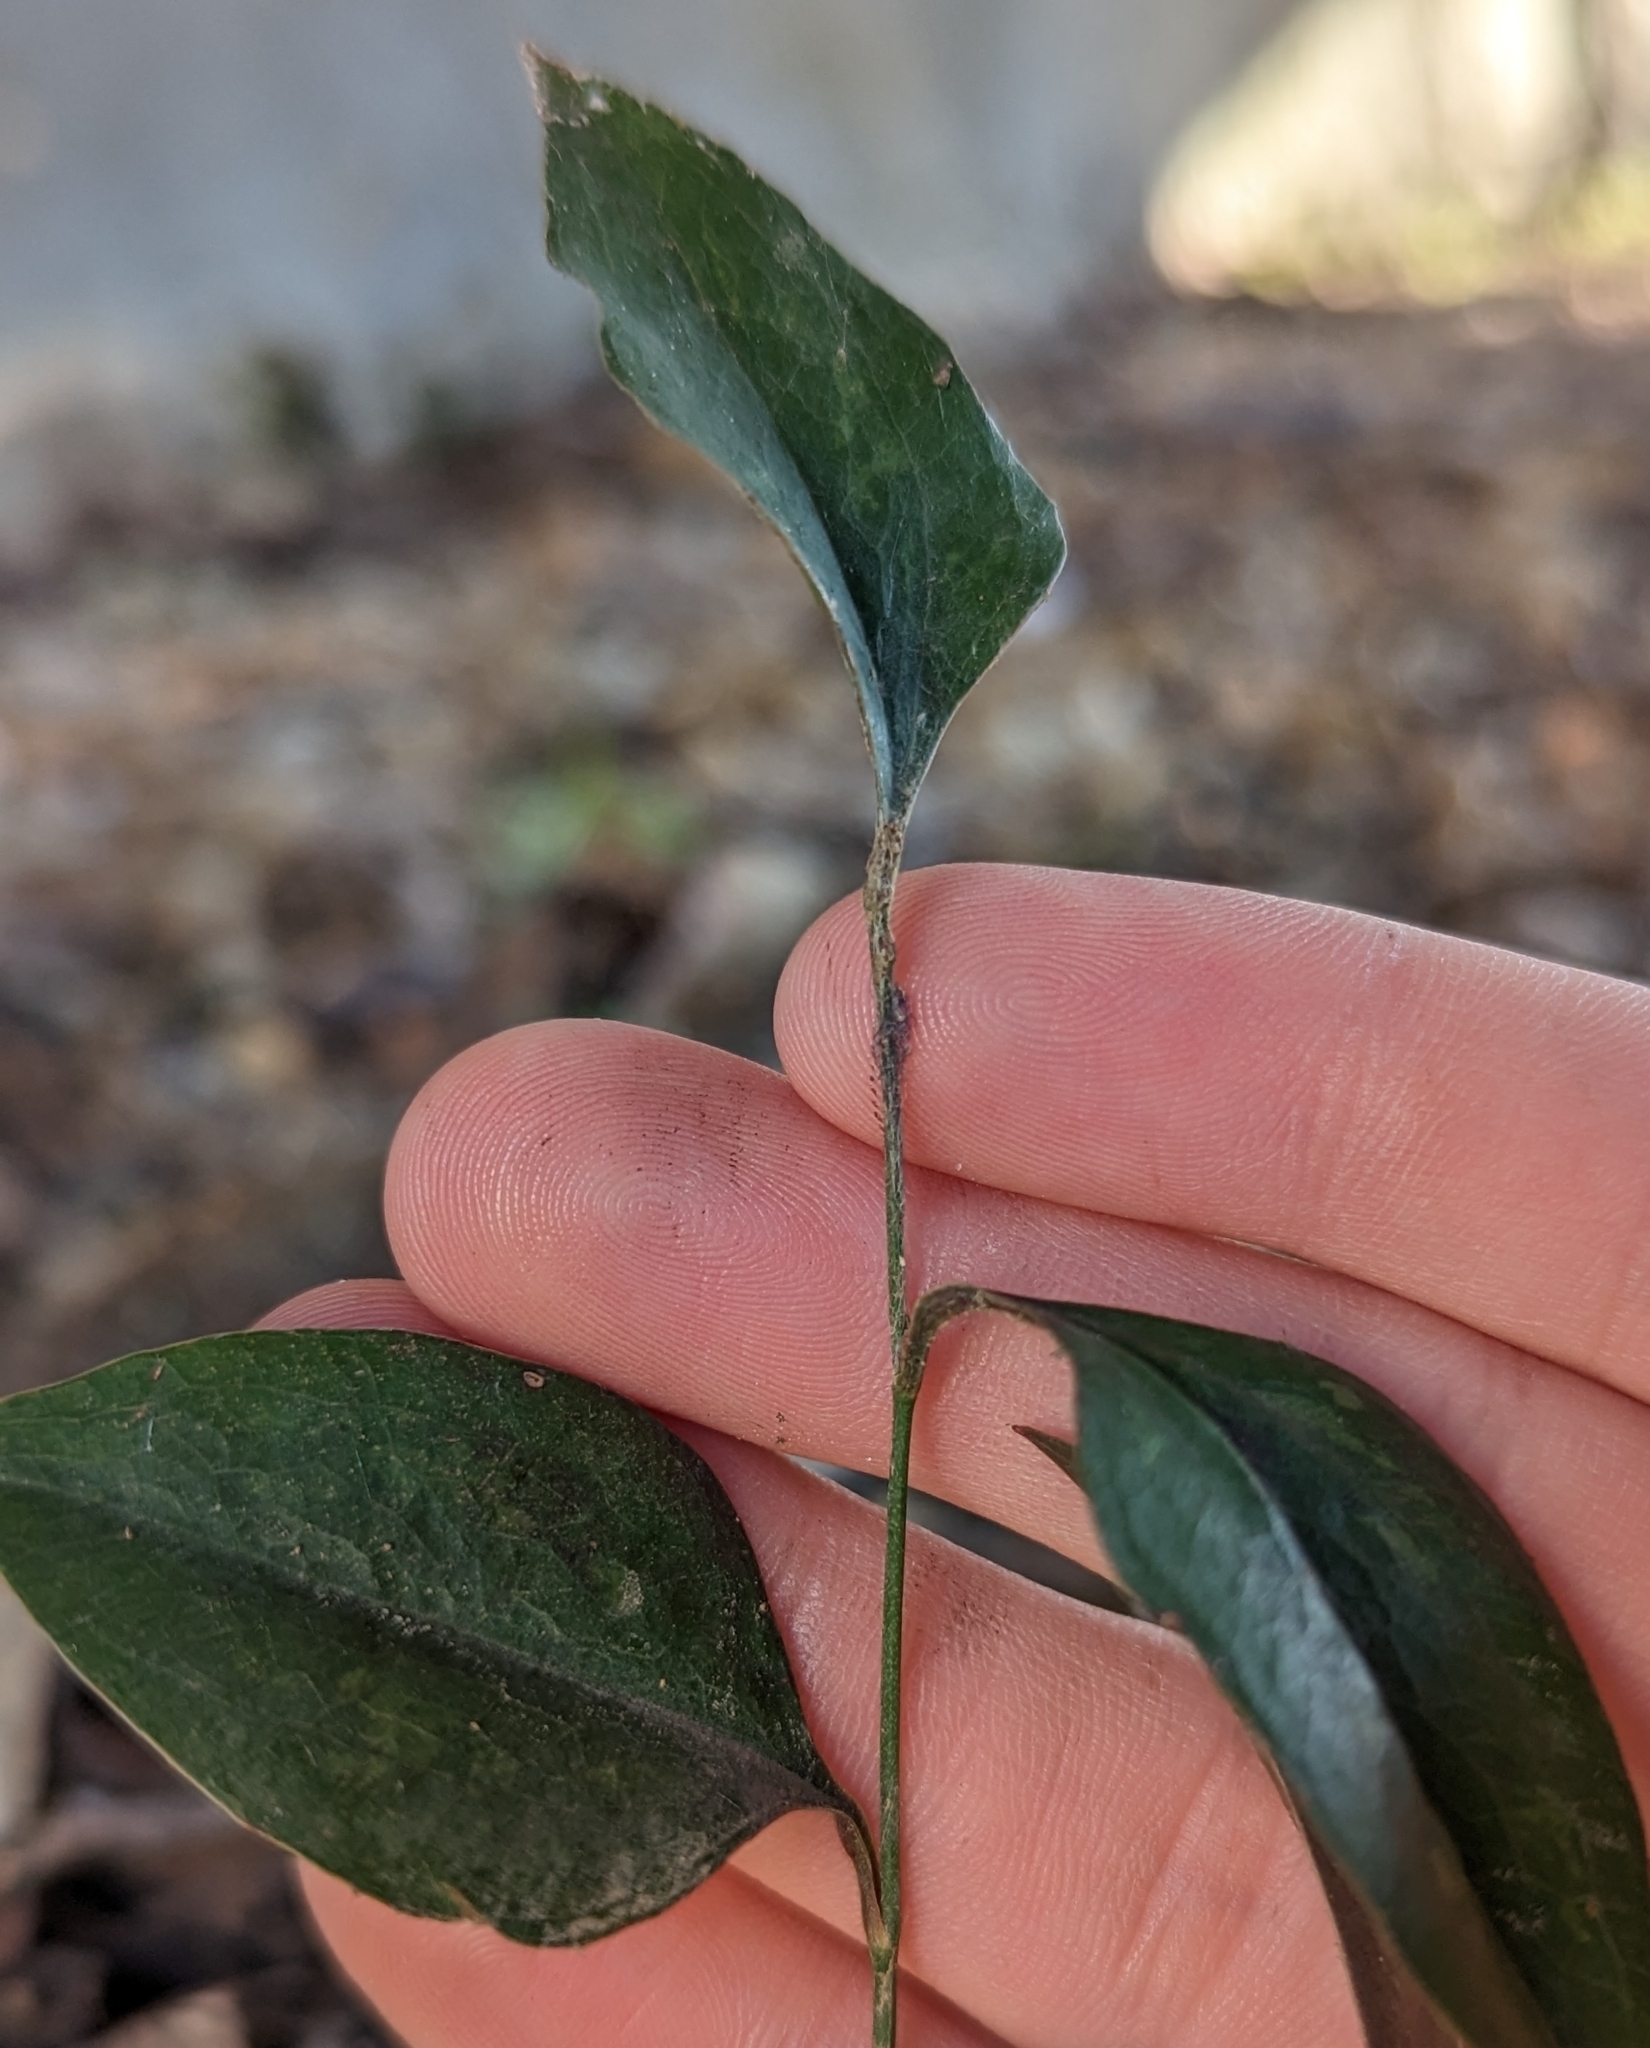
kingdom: Plantae
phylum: Tracheophyta
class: Liliopsida
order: Liliales
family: Smilacaceae
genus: Smilax
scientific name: Smilax bona-nox
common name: Catbrier
